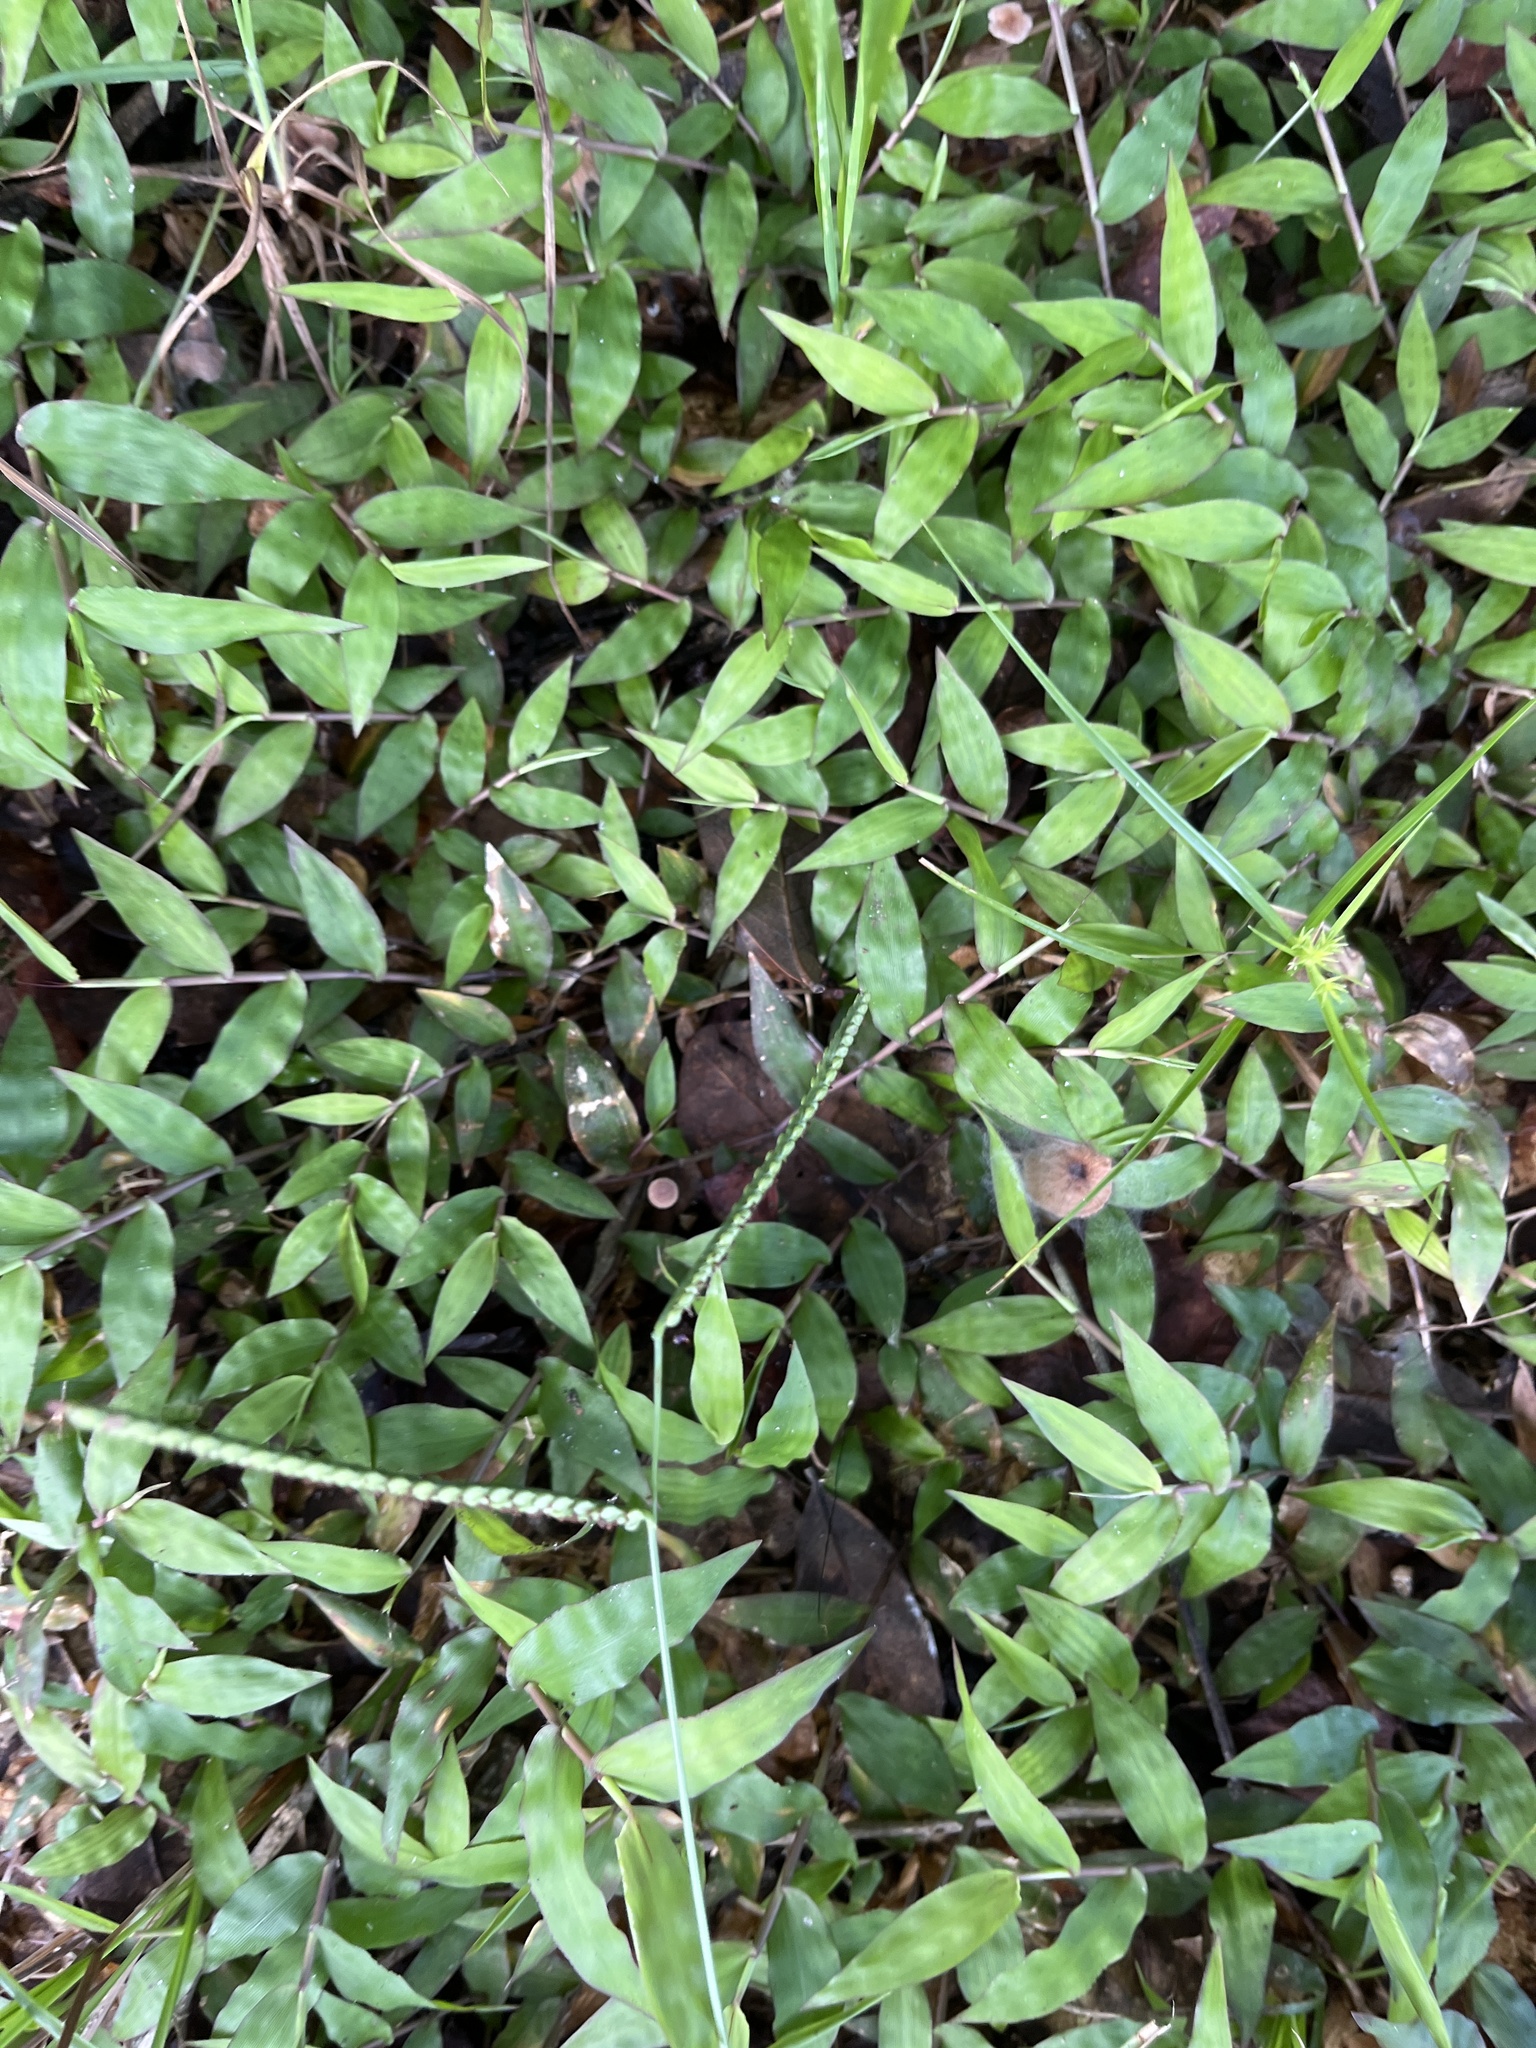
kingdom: Plantae
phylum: Tracheophyta
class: Liliopsida
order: Poales
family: Poaceae
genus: Oplismenus
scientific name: Oplismenus hirtellus
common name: Basketgrass
